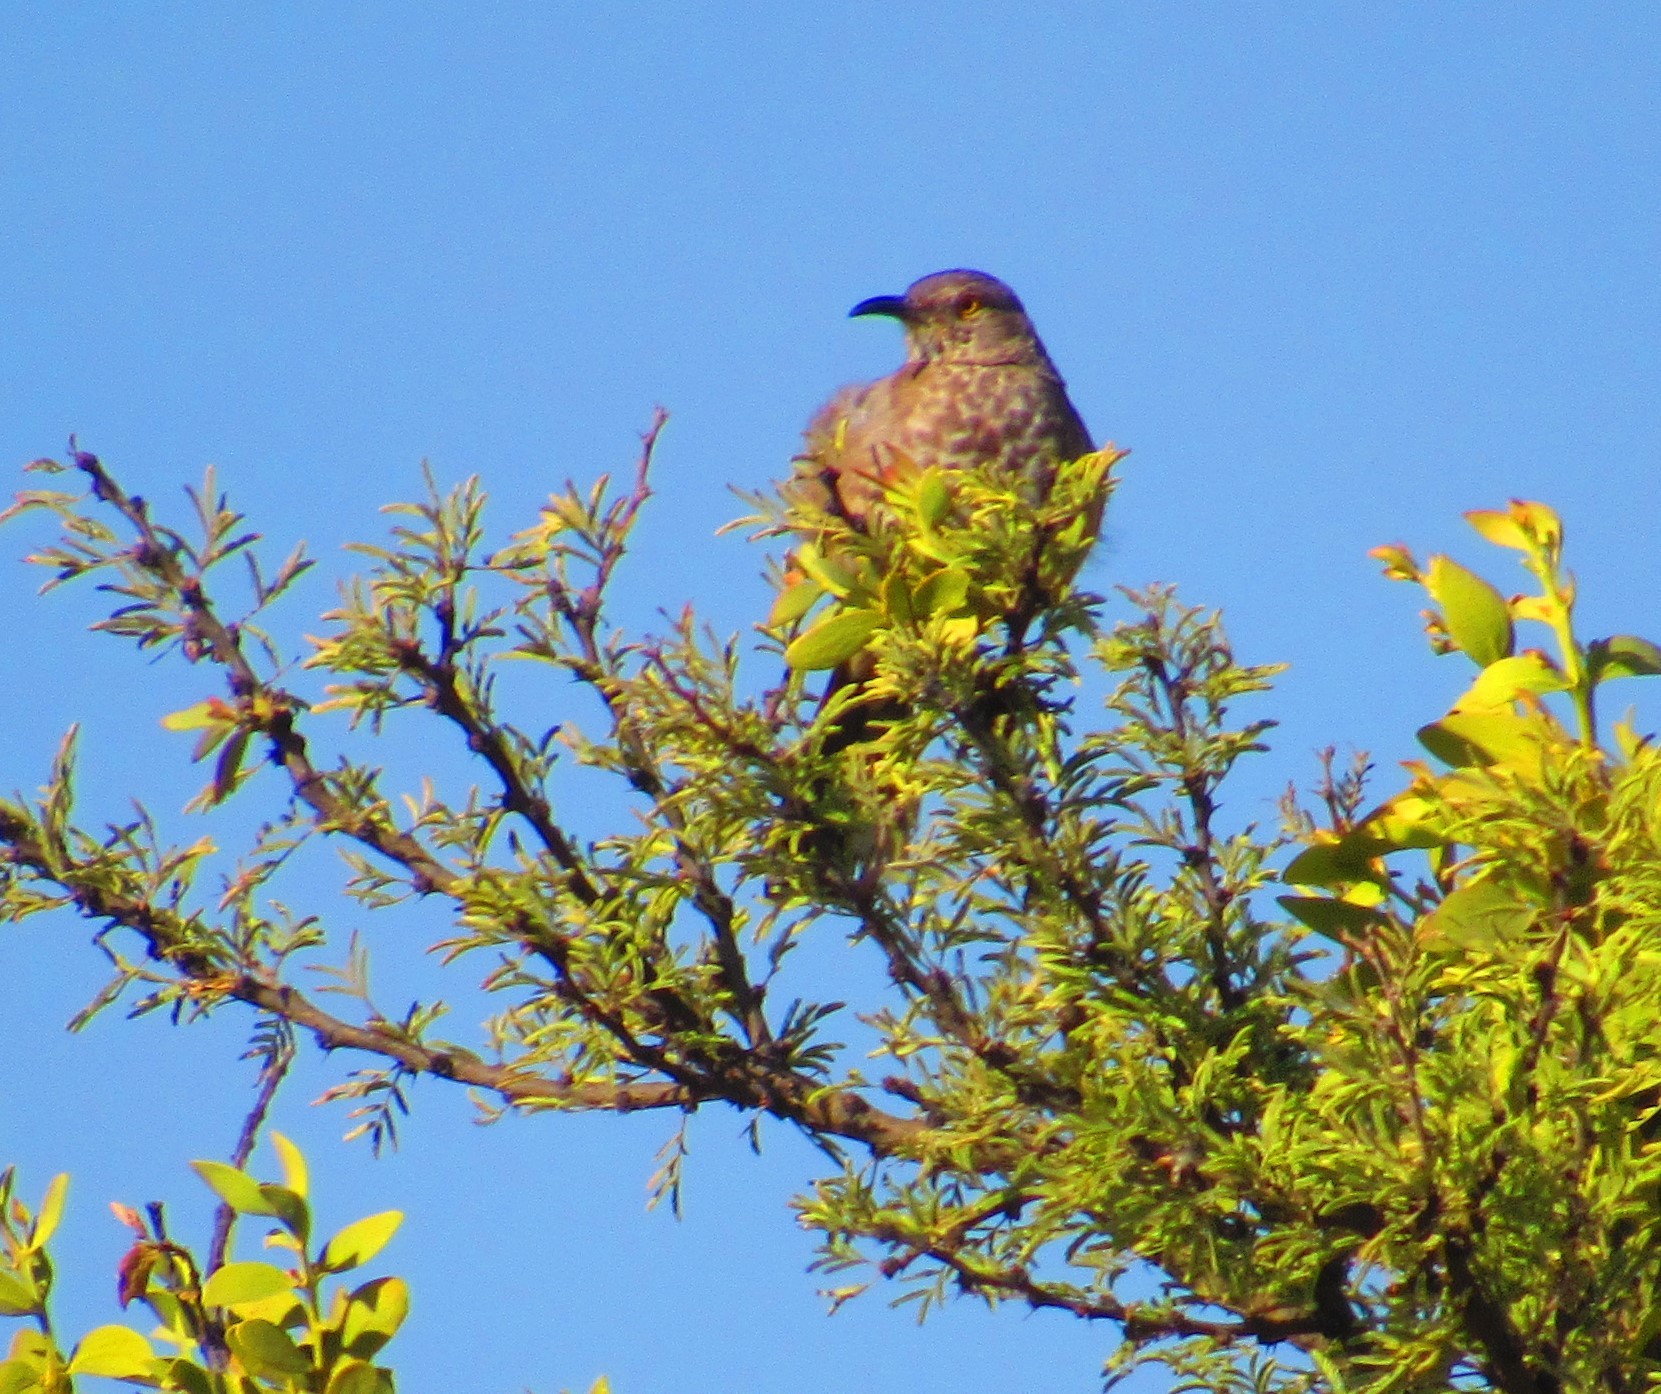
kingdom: Animalia
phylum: Chordata
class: Aves
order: Passeriformes
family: Mimidae
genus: Toxostoma
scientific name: Toxostoma curvirostre
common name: Curve-billed thrasher
